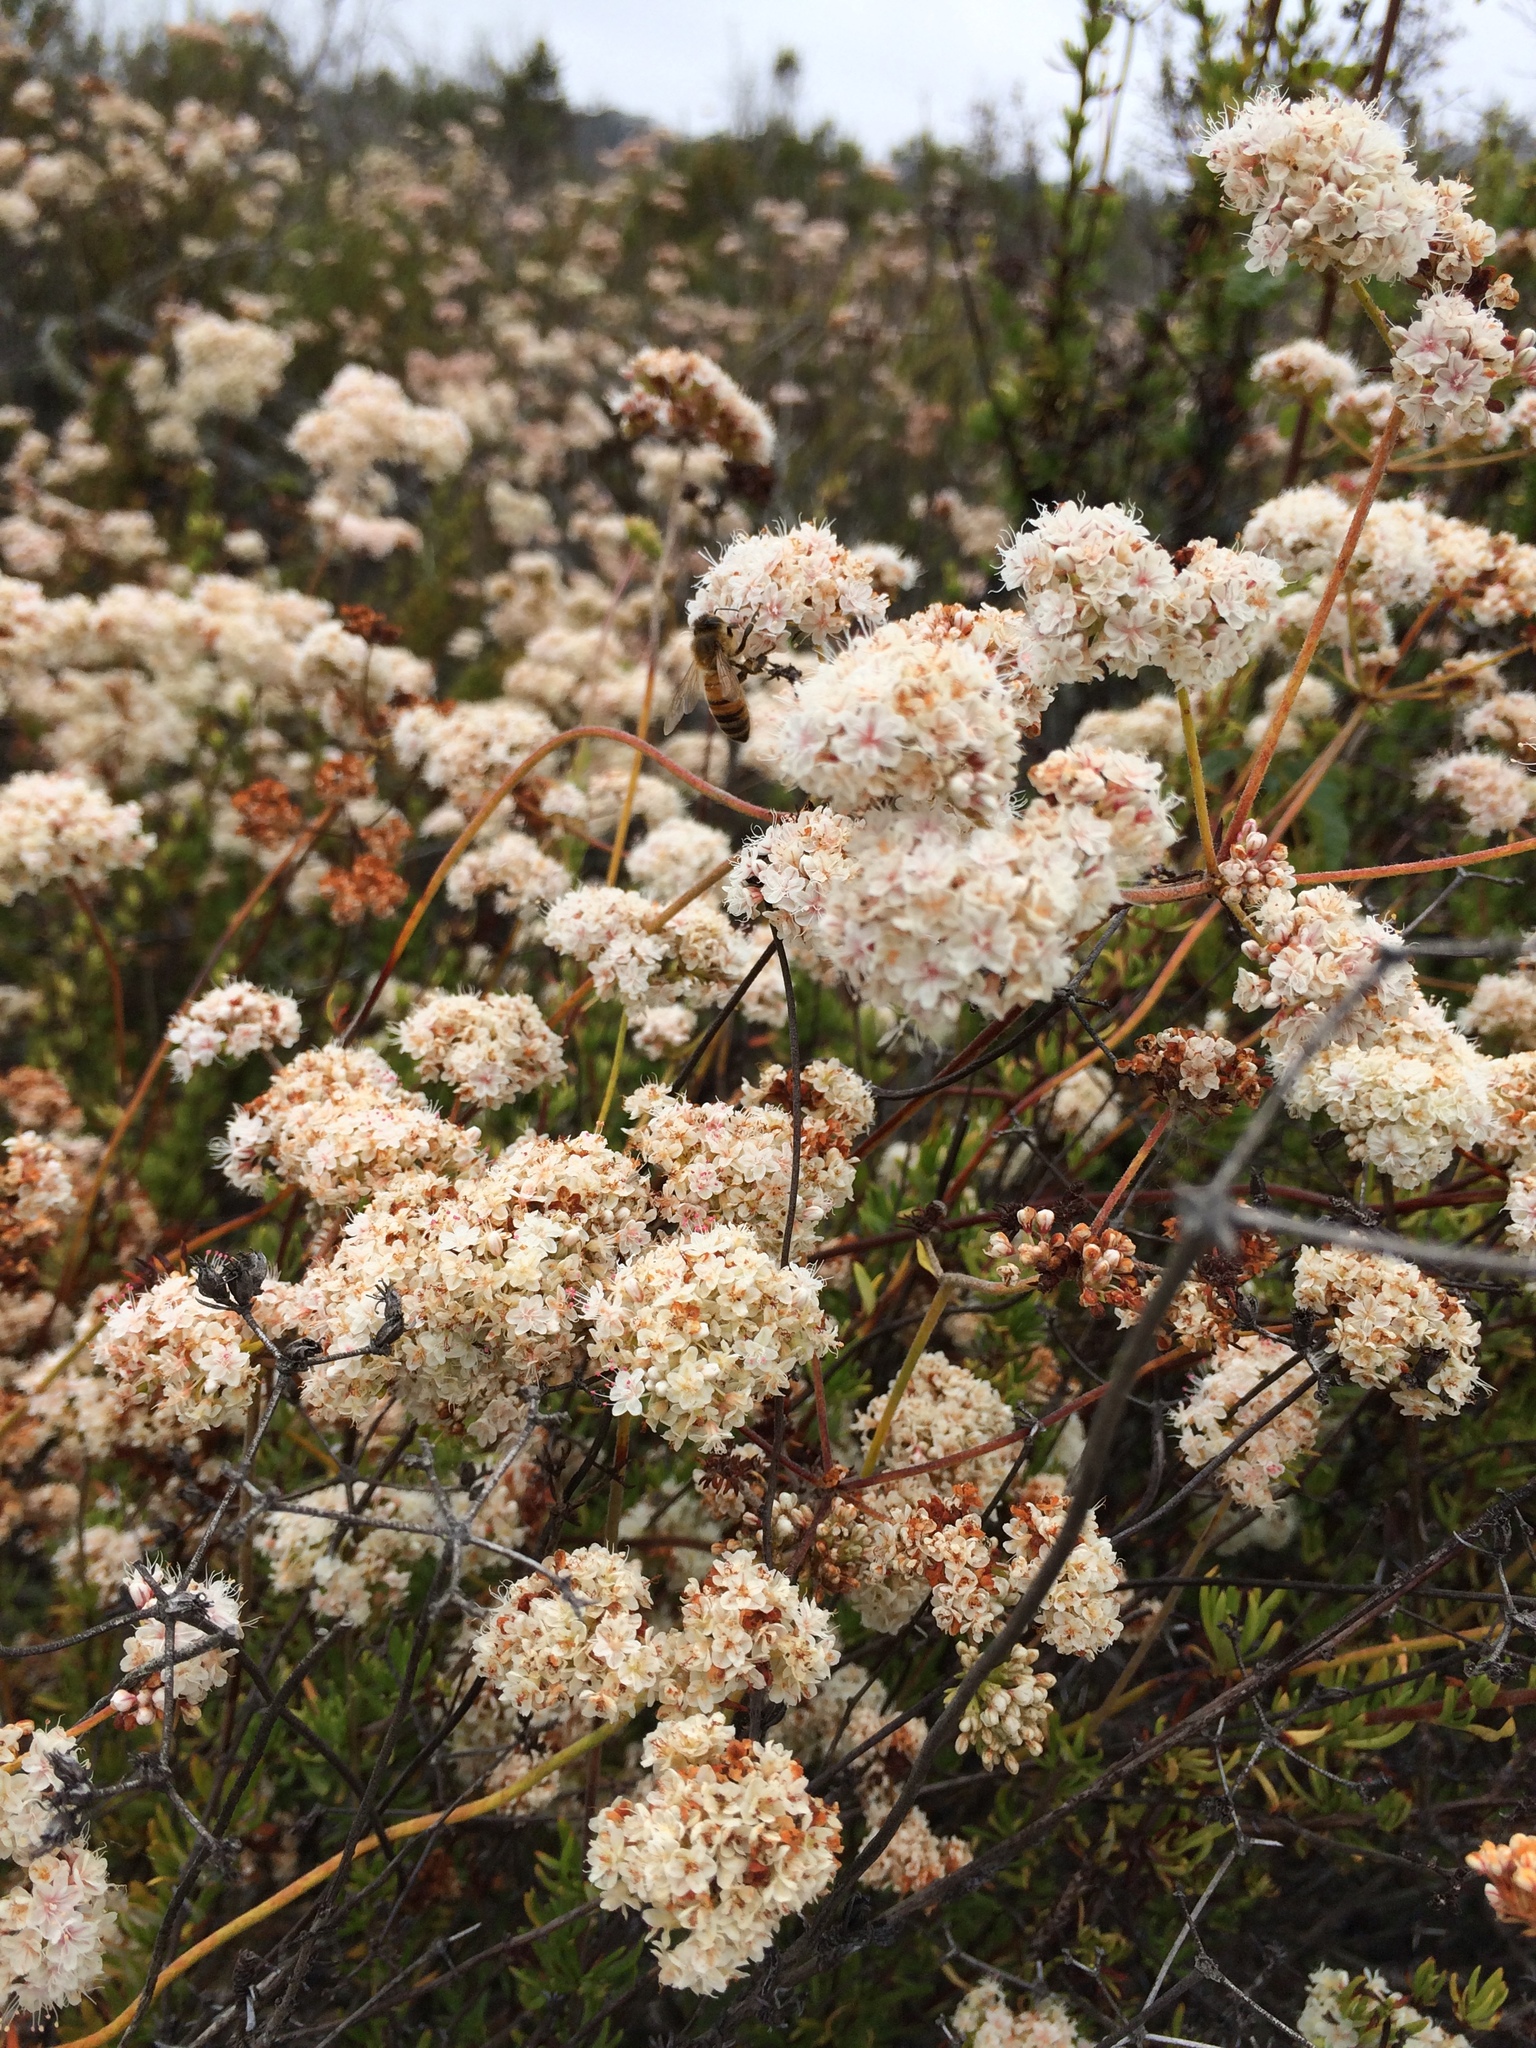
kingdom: Animalia
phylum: Arthropoda
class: Insecta
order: Hymenoptera
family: Apidae
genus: Apis
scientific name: Apis mellifera
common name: Honey bee
